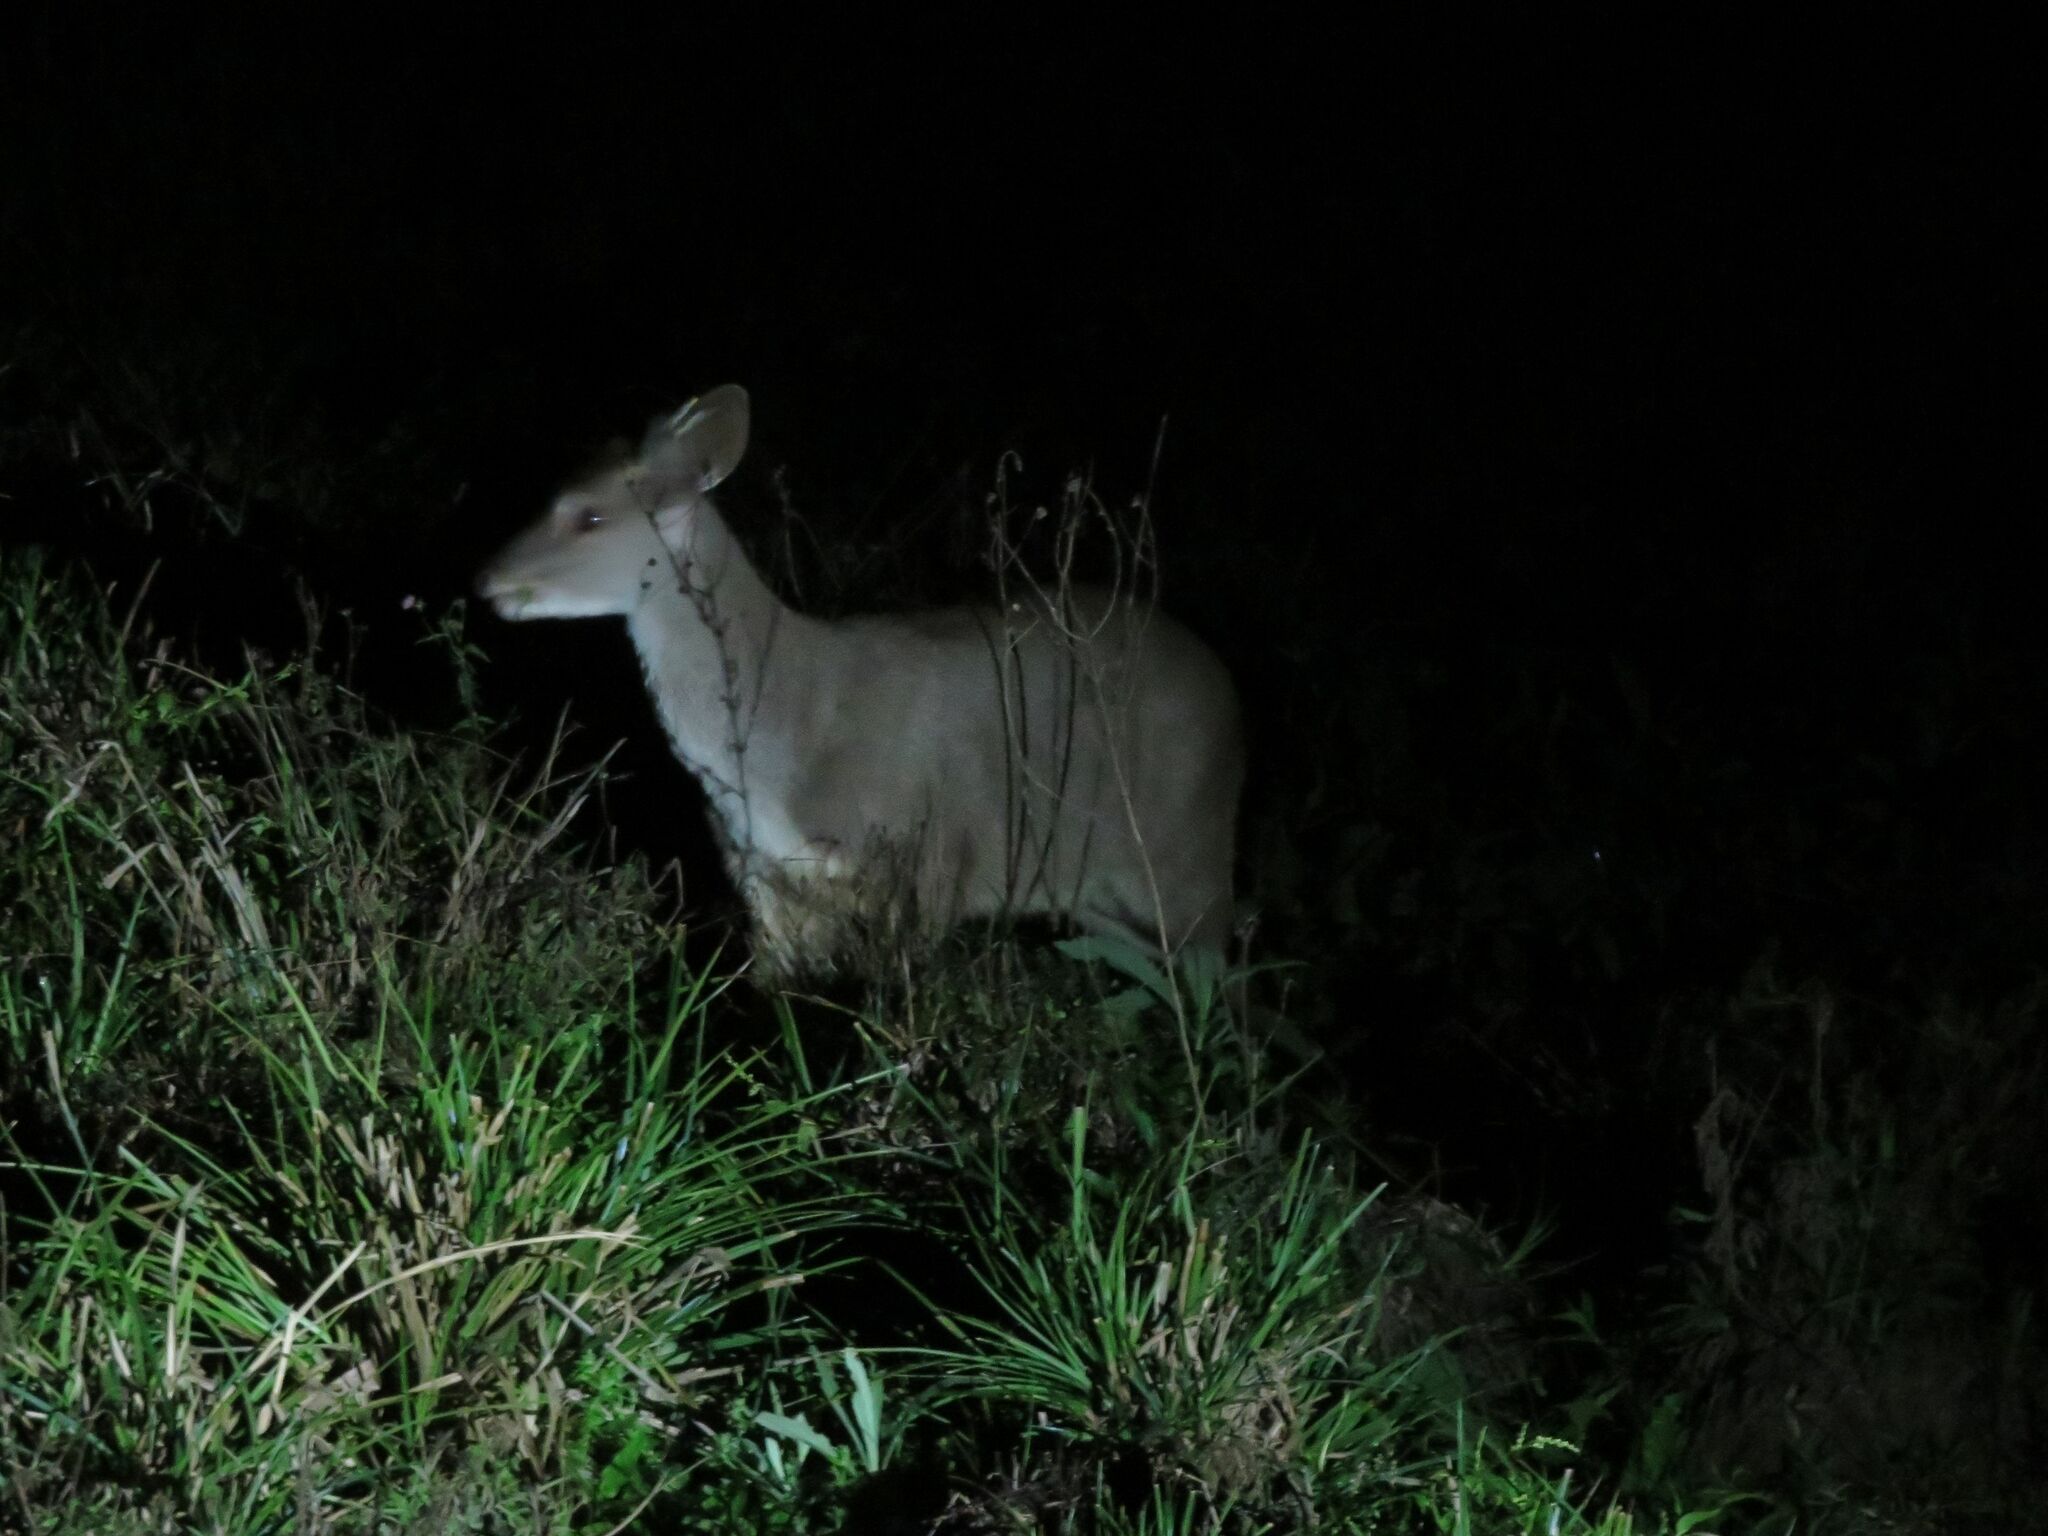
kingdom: Animalia
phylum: Chordata
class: Mammalia
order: Artiodactyla
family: Cervidae
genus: Mazama
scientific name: Mazama gouazoubira
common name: Gray brocket
